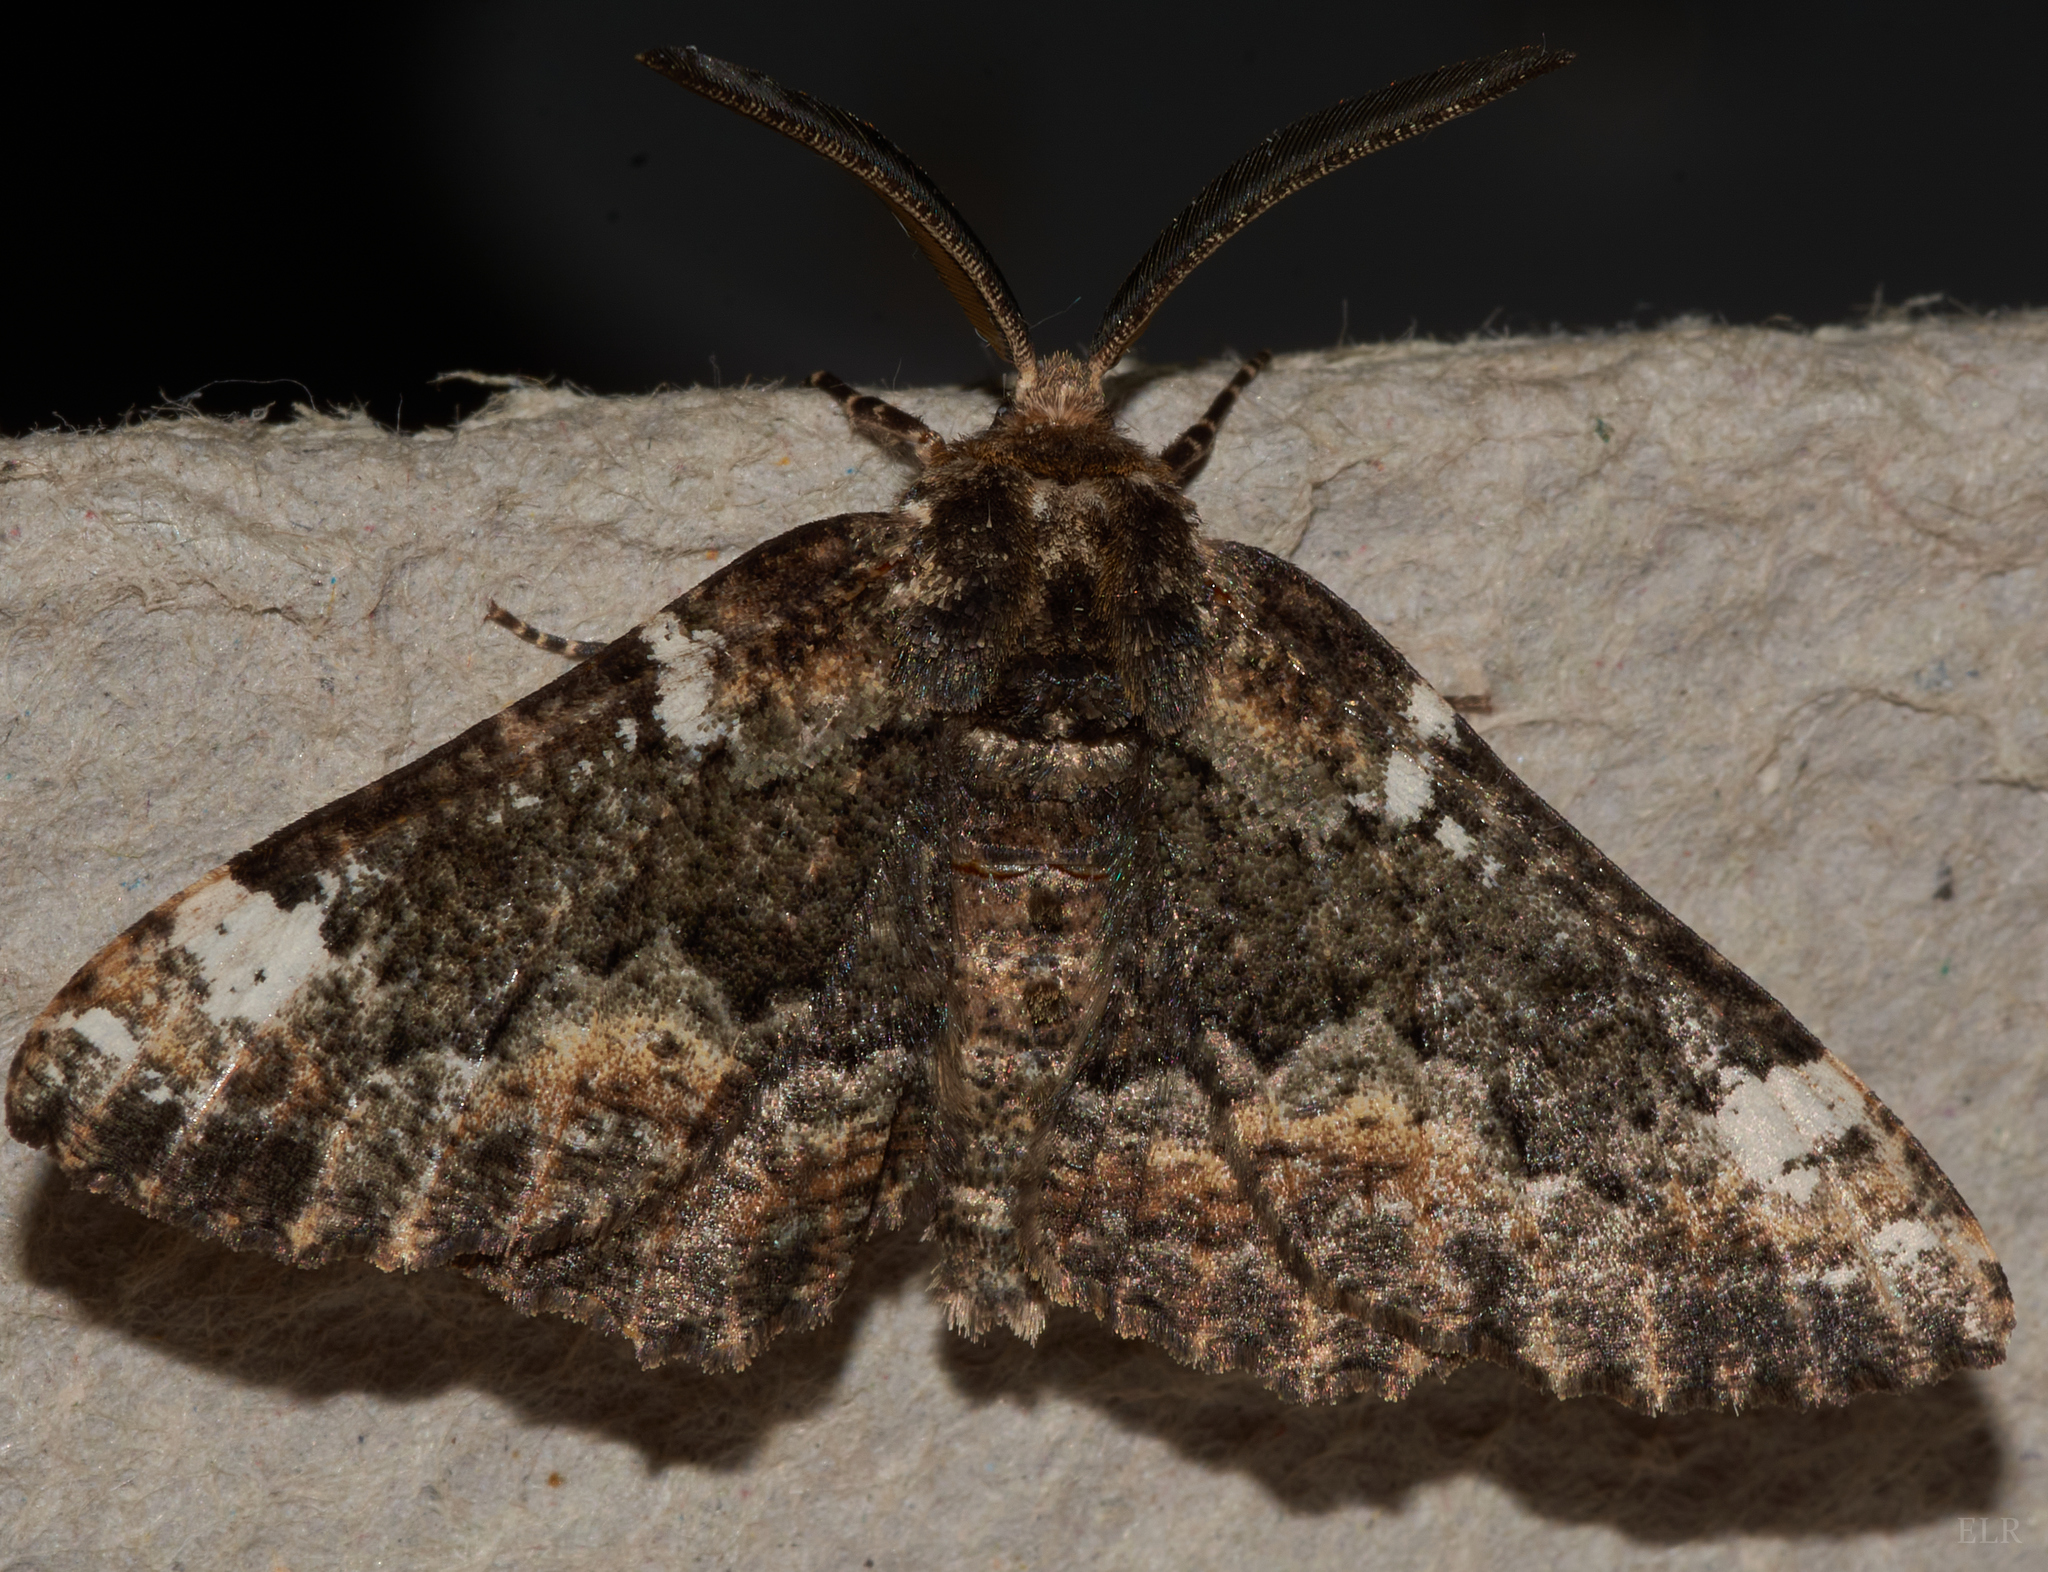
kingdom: Animalia
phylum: Arthropoda
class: Insecta
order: Lepidoptera
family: Geometridae
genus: Phaeoura
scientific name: Phaeoura quernaria
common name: Oak beauty
